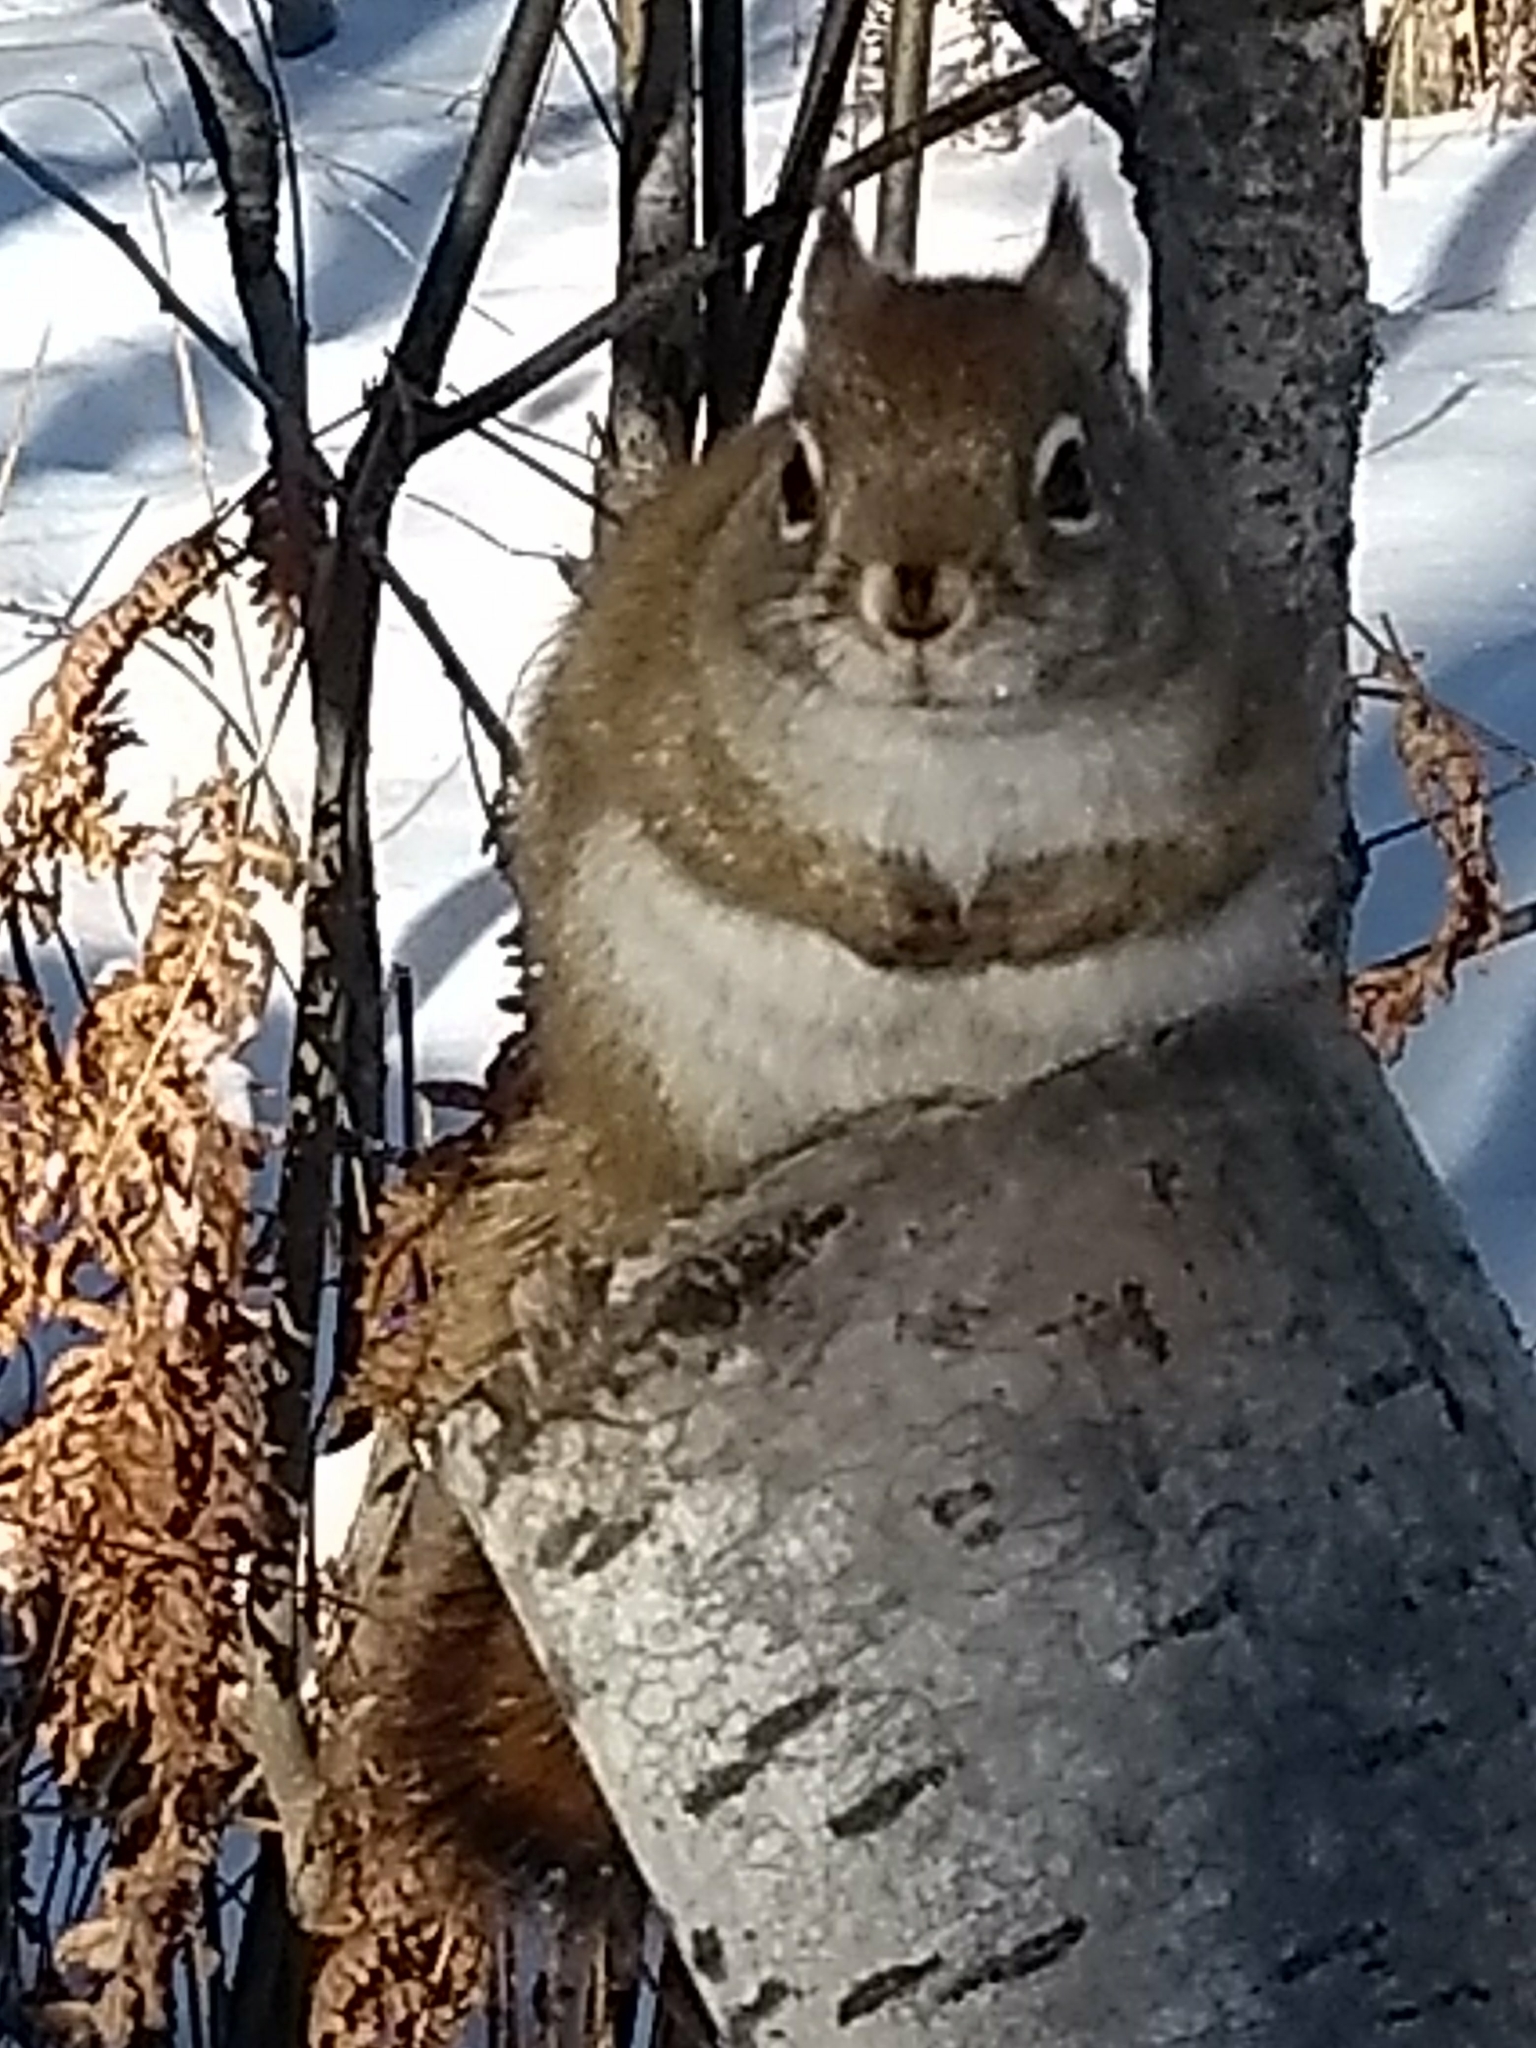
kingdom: Animalia
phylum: Chordata
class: Mammalia
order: Rodentia
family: Sciuridae
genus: Tamiasciurus
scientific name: Tamiasciurus hudsonicus
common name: Red squirrel
